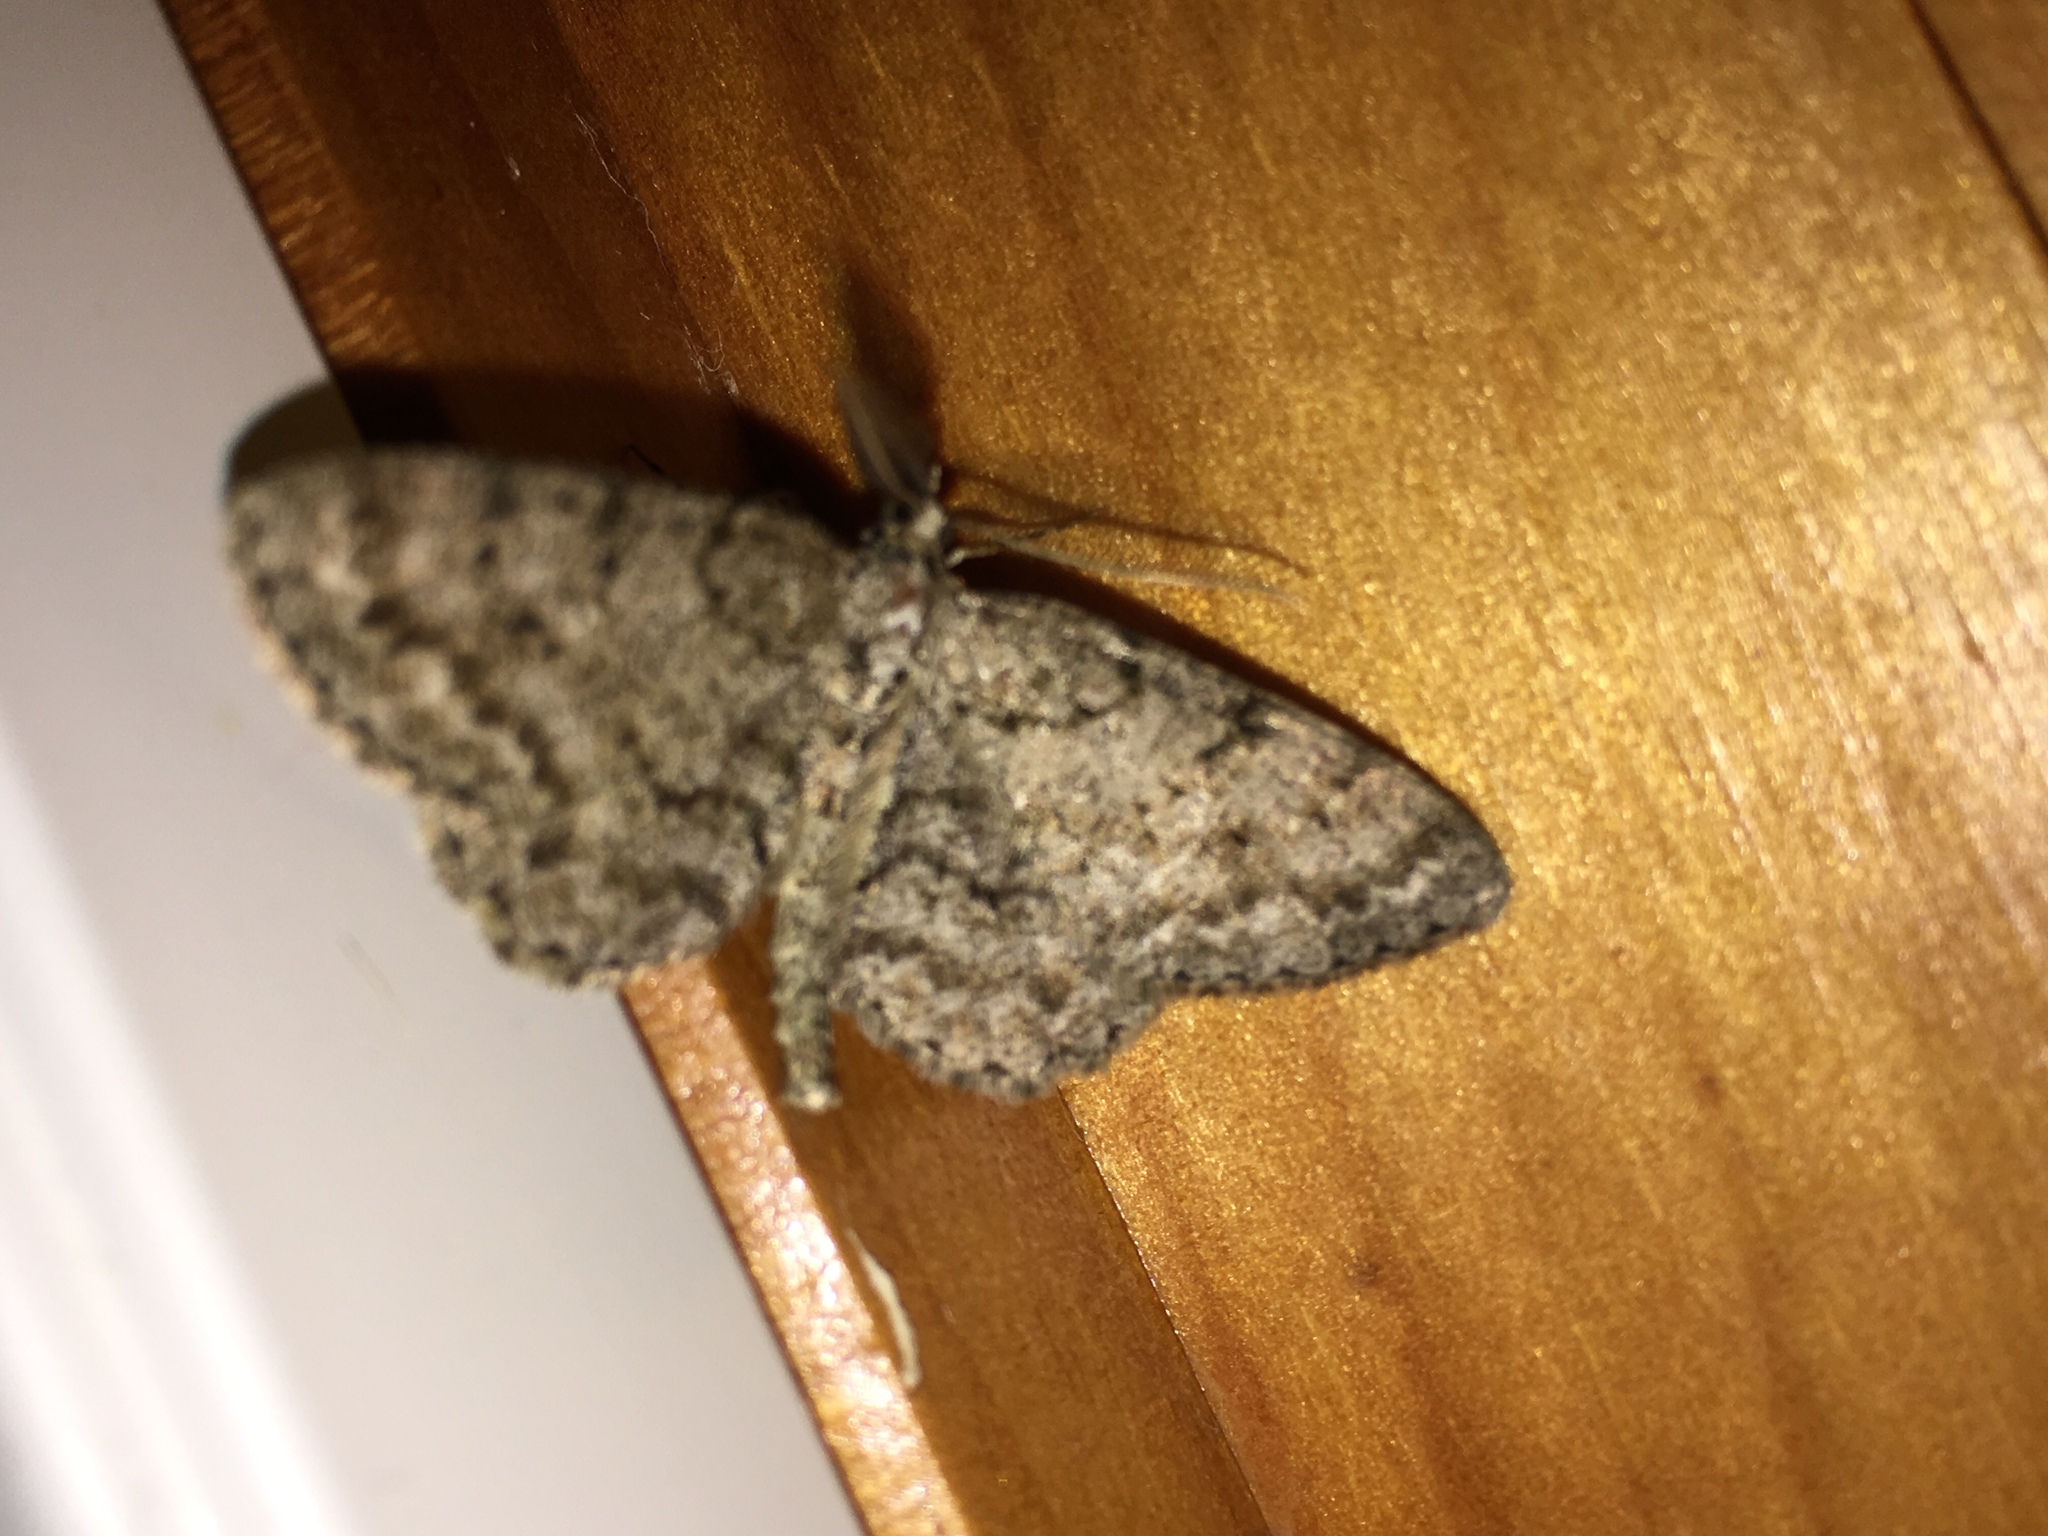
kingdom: Animalia
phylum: Arthropoda
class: Insecta
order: Lepidoptera
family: Geometridae
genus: Protoboarmia
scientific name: Protoboarmia porcelaria
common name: Porcelain gray
